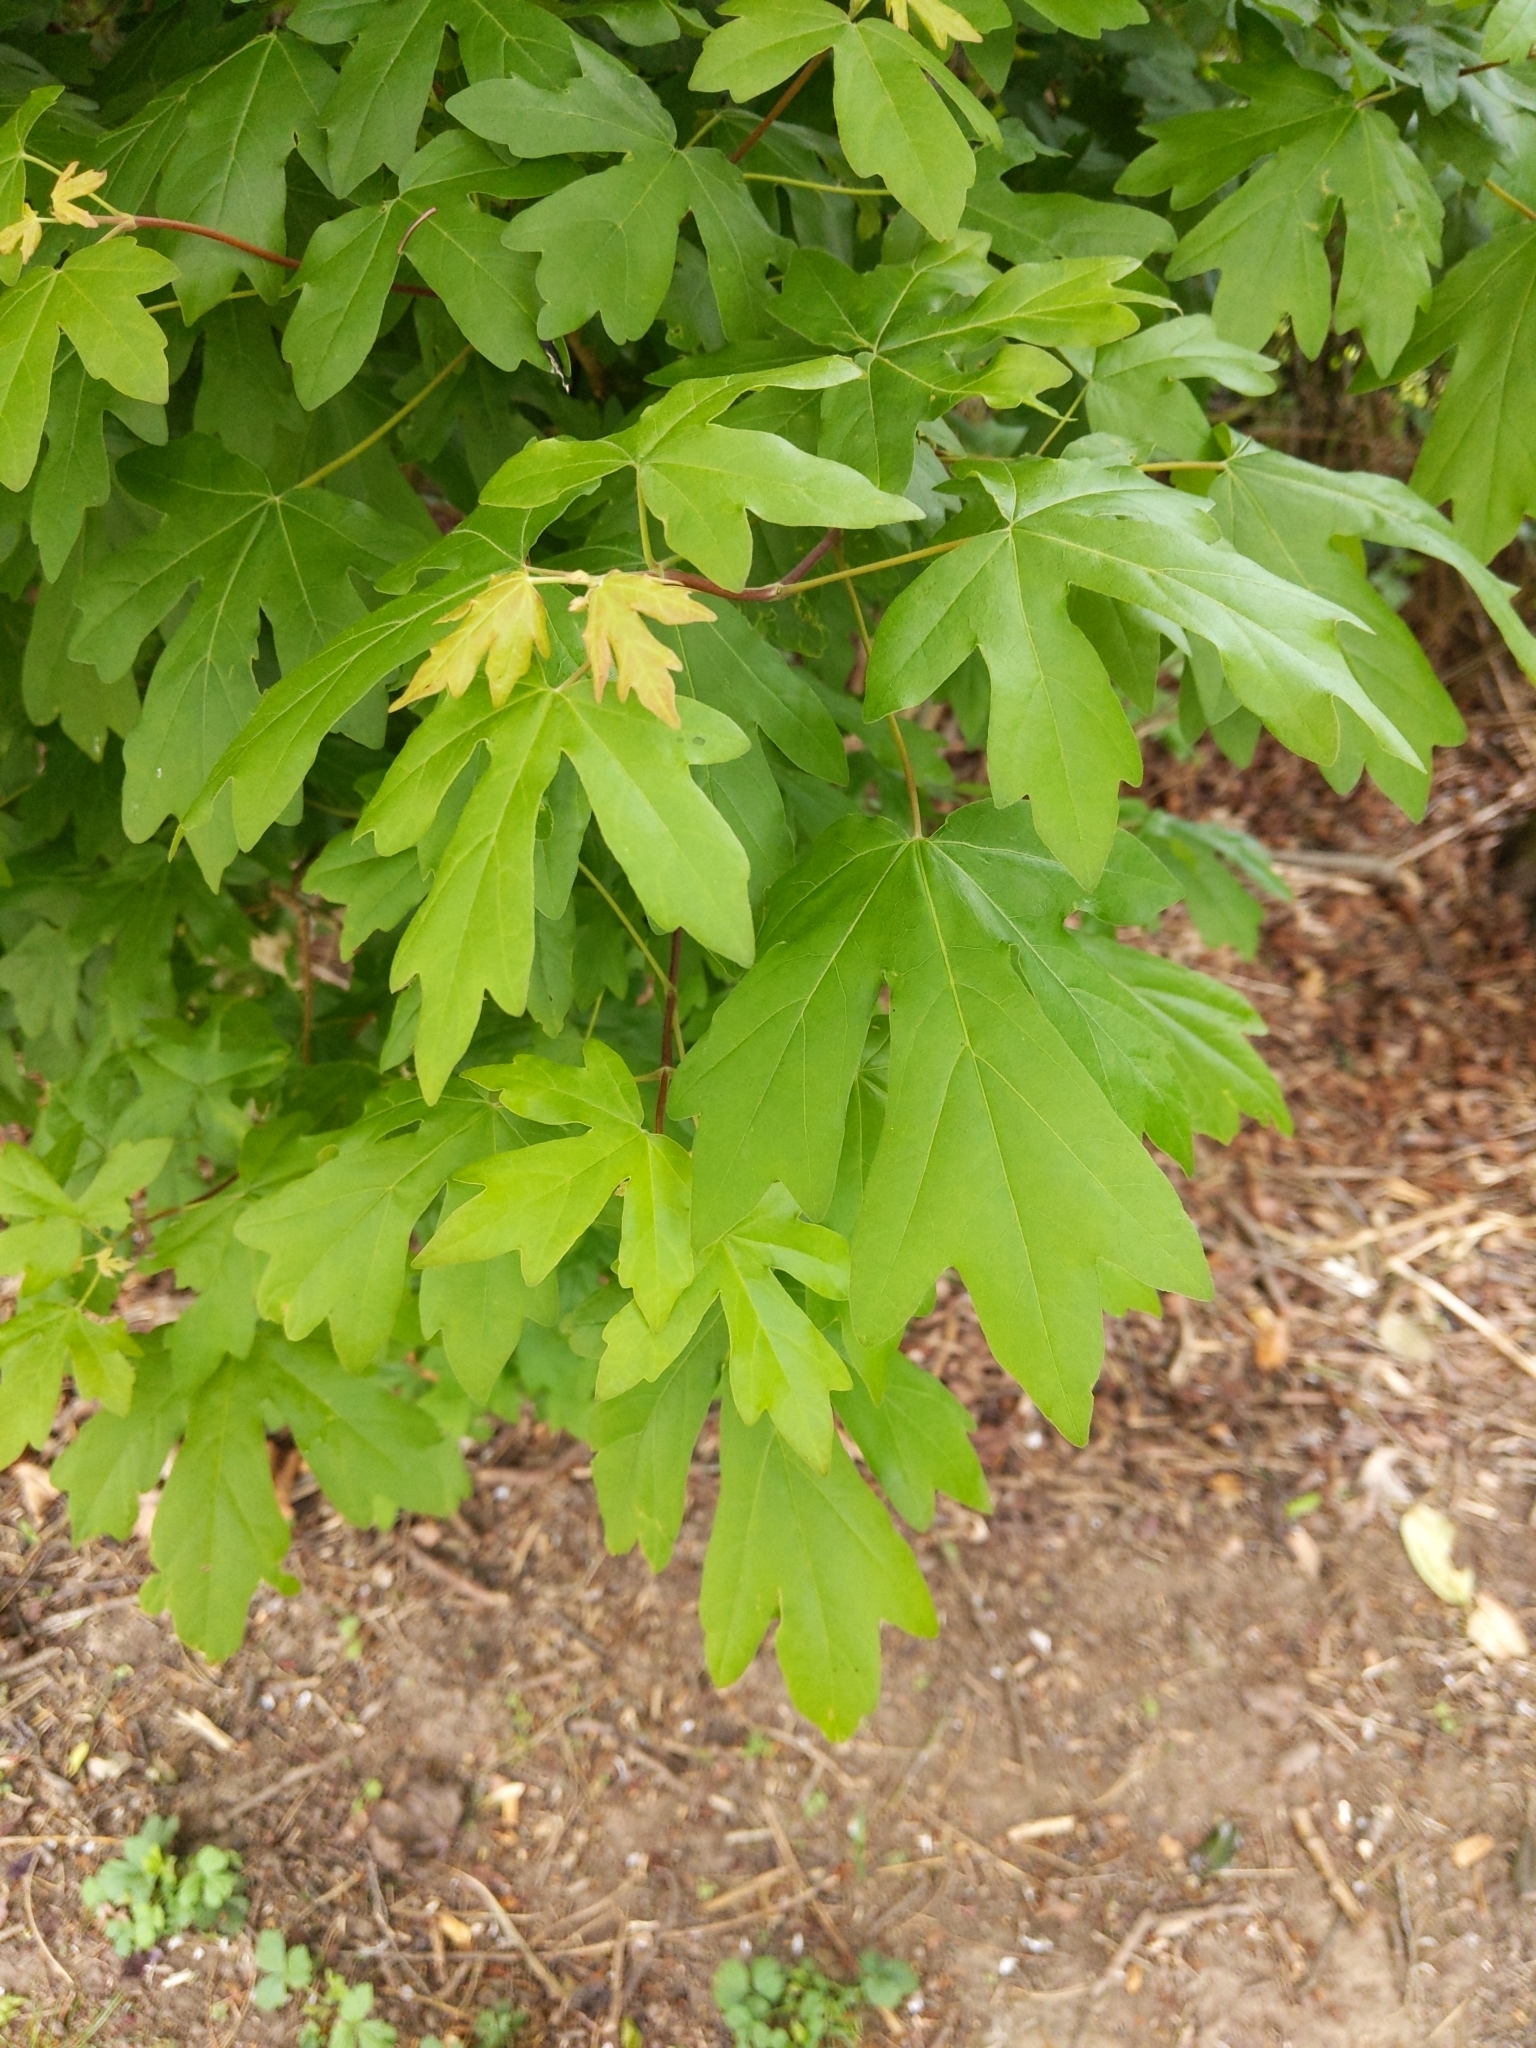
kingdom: Plantae
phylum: Tracheophyta
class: Magnoliopsida
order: Sapindales
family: Sapindaceae
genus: Acer
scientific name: Acer campestre
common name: Field maple
